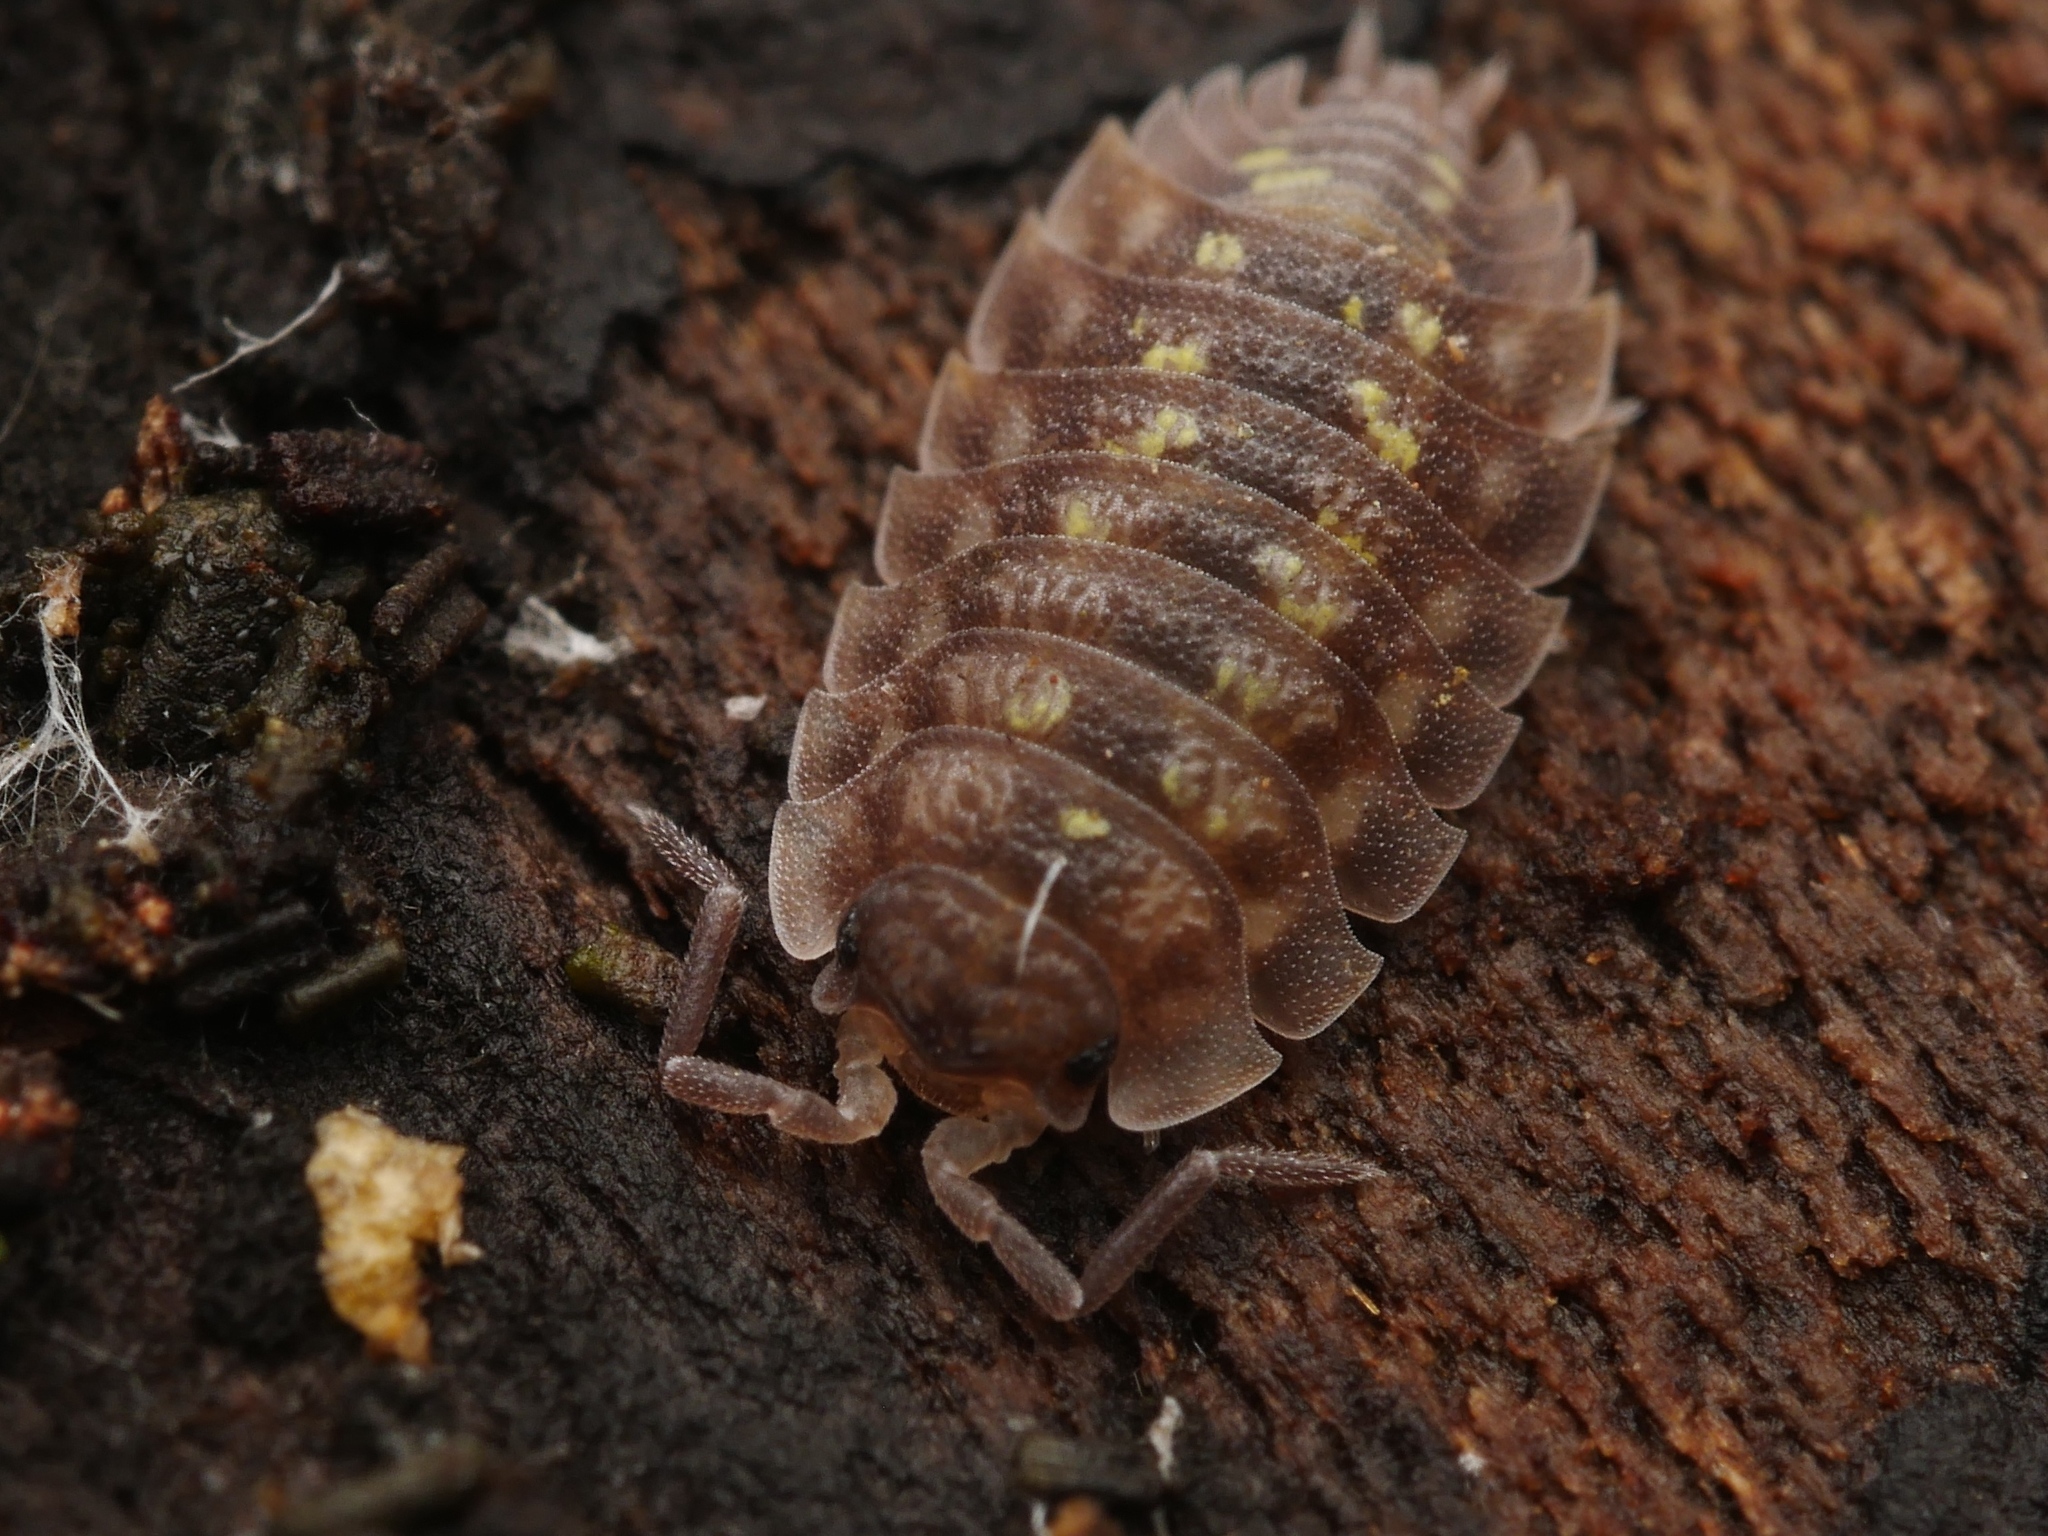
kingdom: Animalia
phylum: Arthropoda
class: Malacostraca
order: Isopoda
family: Oniscidae
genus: Oniscus
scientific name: Oniscus asellus
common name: Common shiny woodlouse
